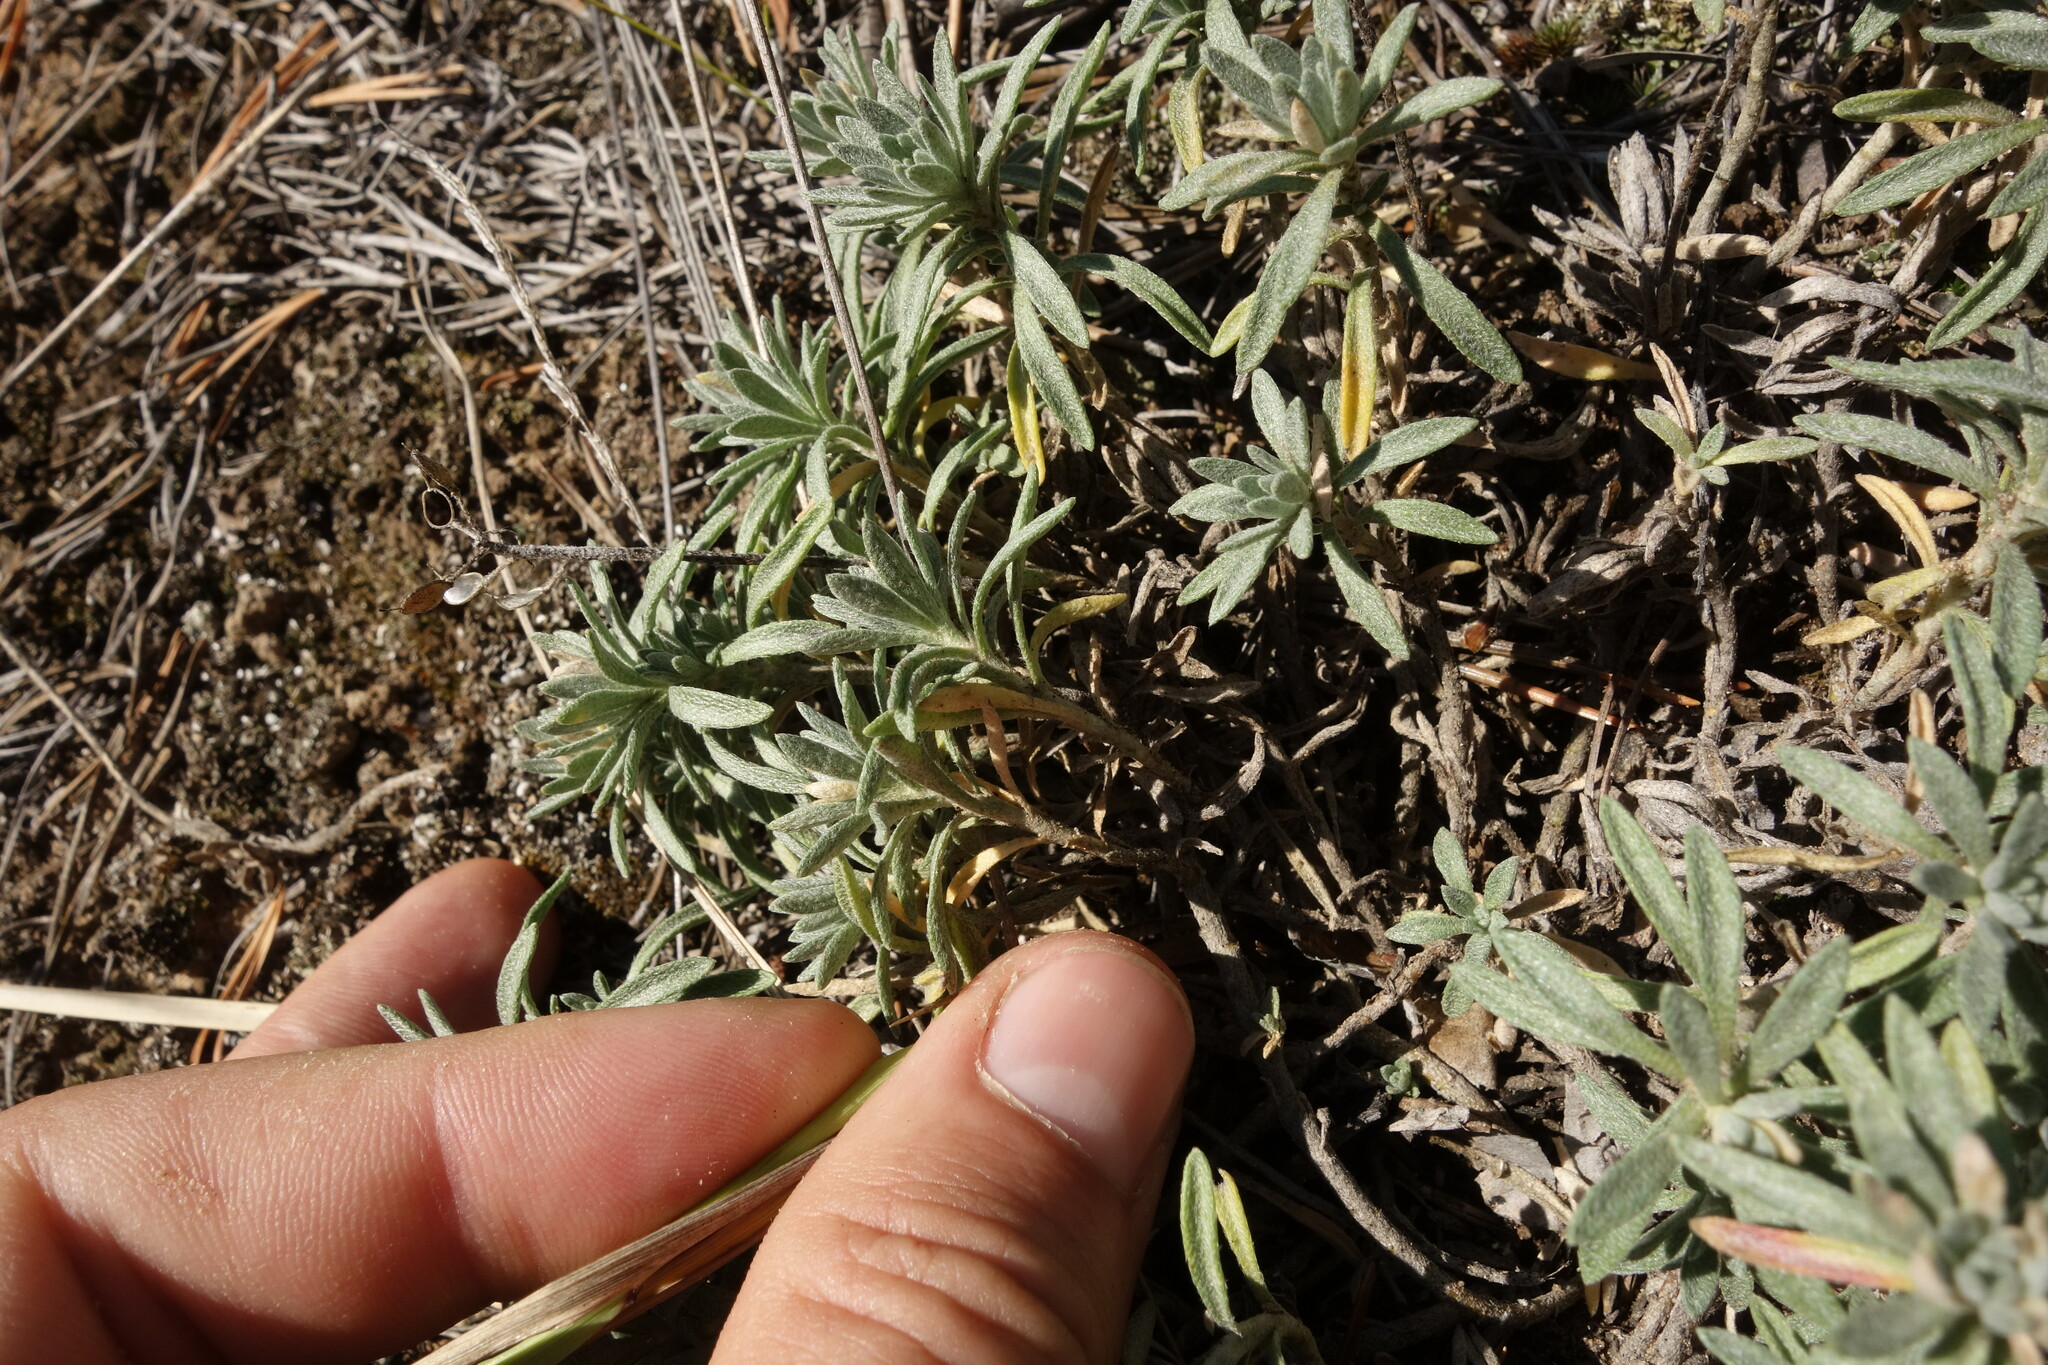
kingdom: Plantae
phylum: Tracheophyta
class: Magnoliopsida
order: Brassicales
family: Brassicaceae
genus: Alyssum
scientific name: Alyssum lenense
